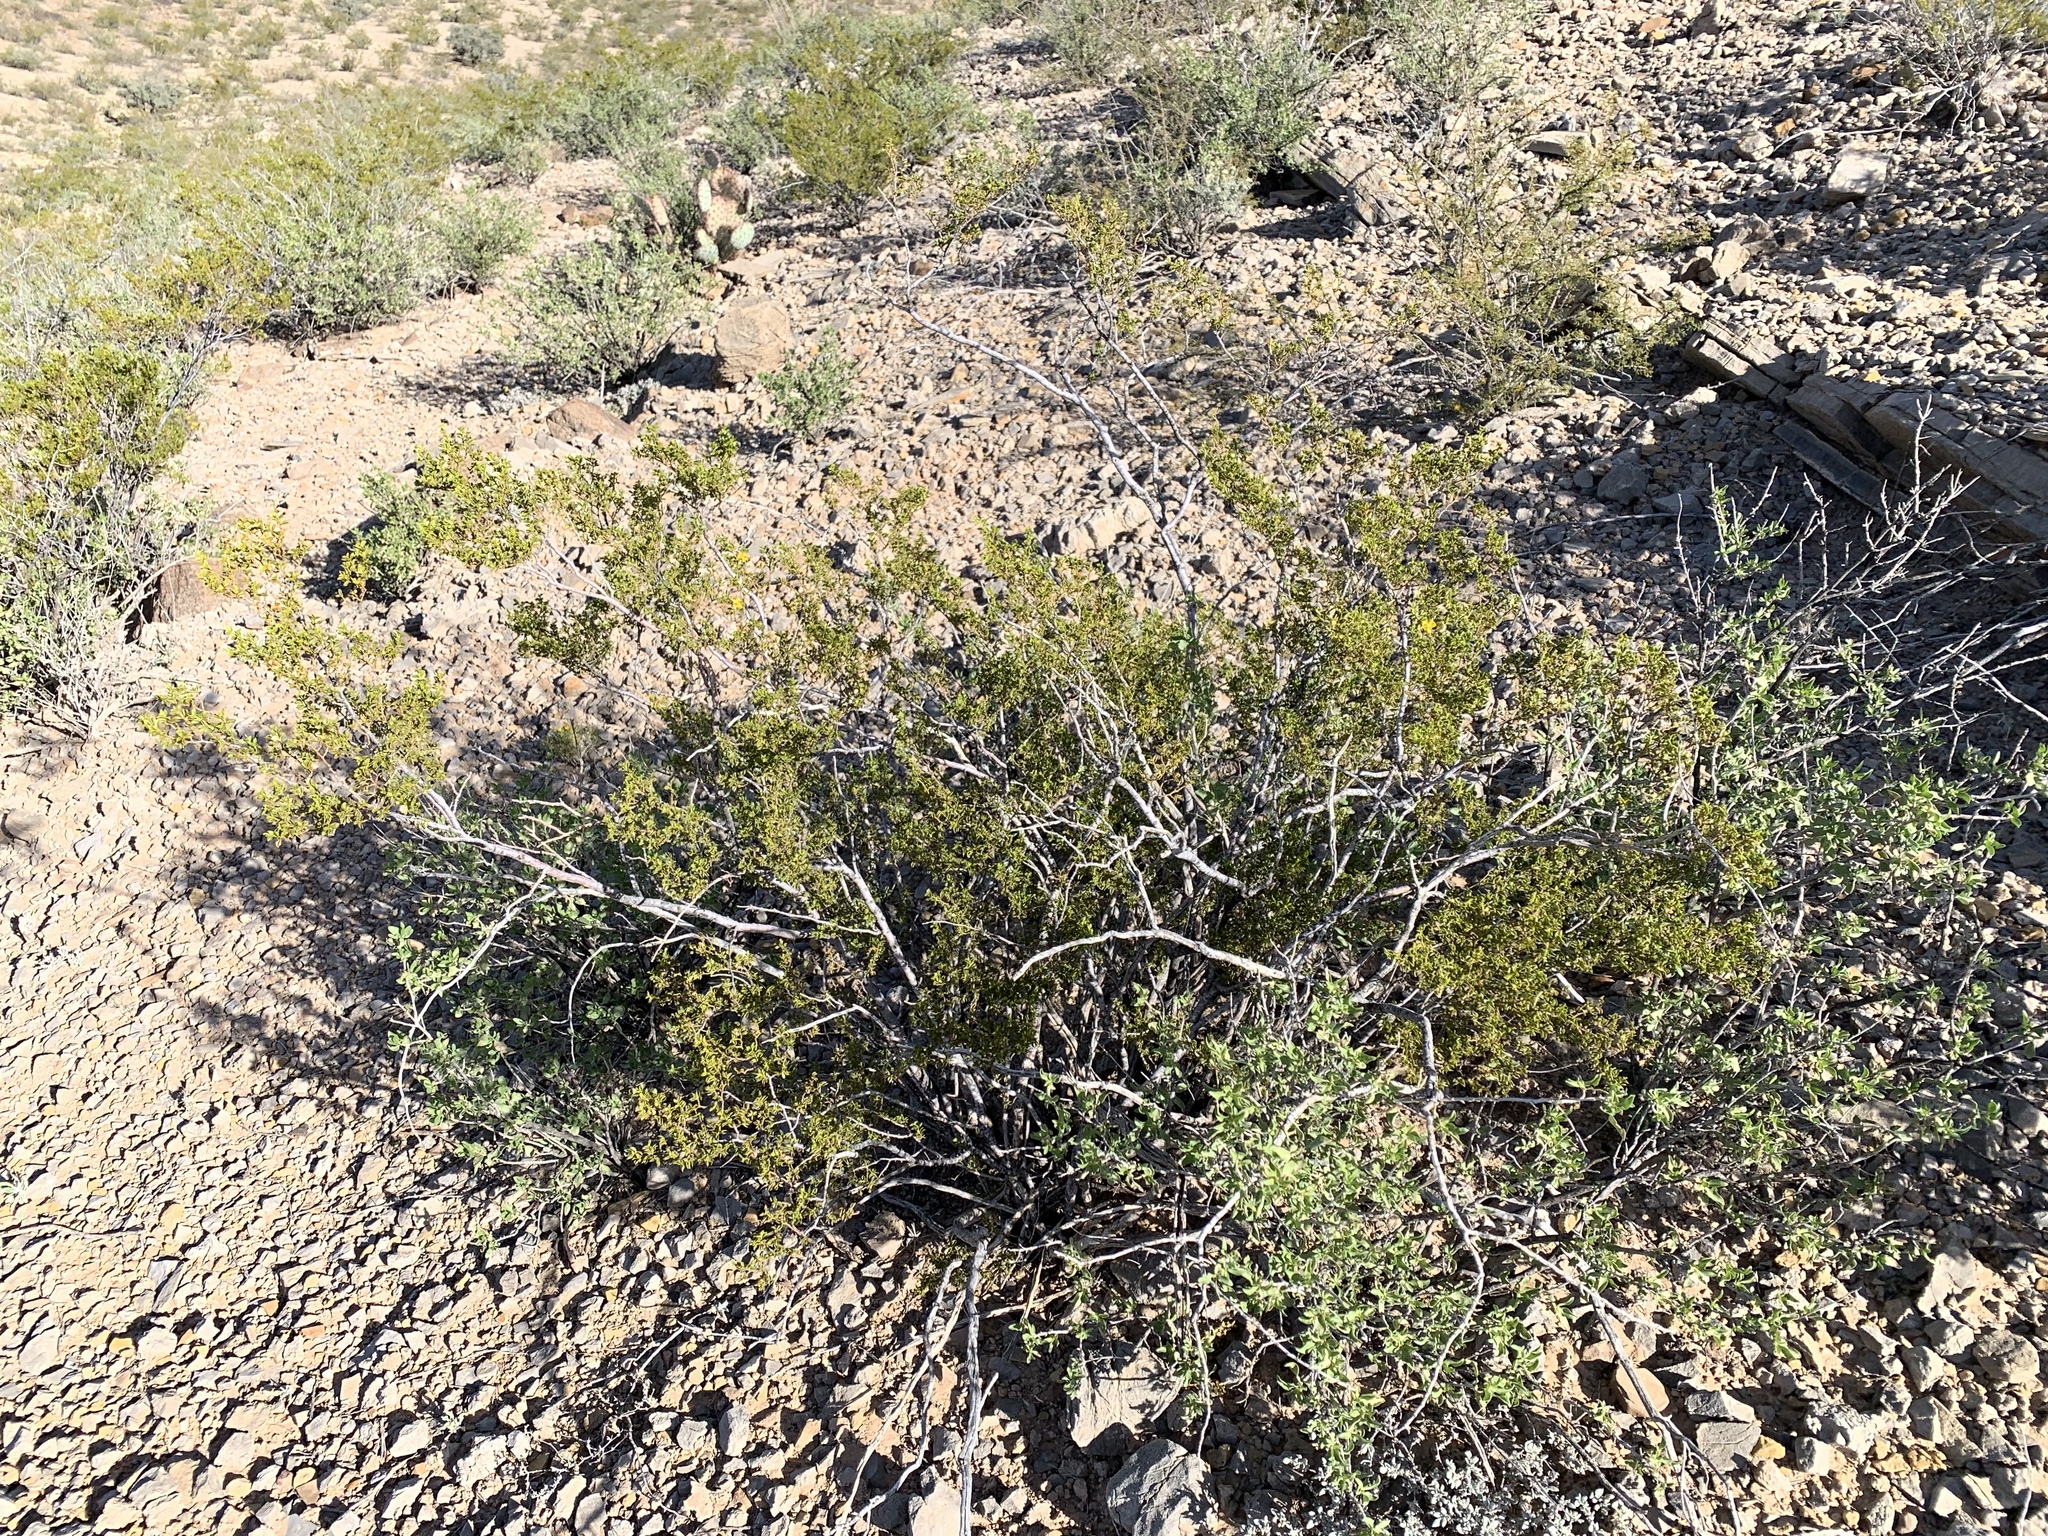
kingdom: Plantae
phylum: Tracheophyta
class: Magnoliopsida
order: Zygophyllales
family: Zygophyllaceae
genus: Larrea
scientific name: Larrea tridentata
